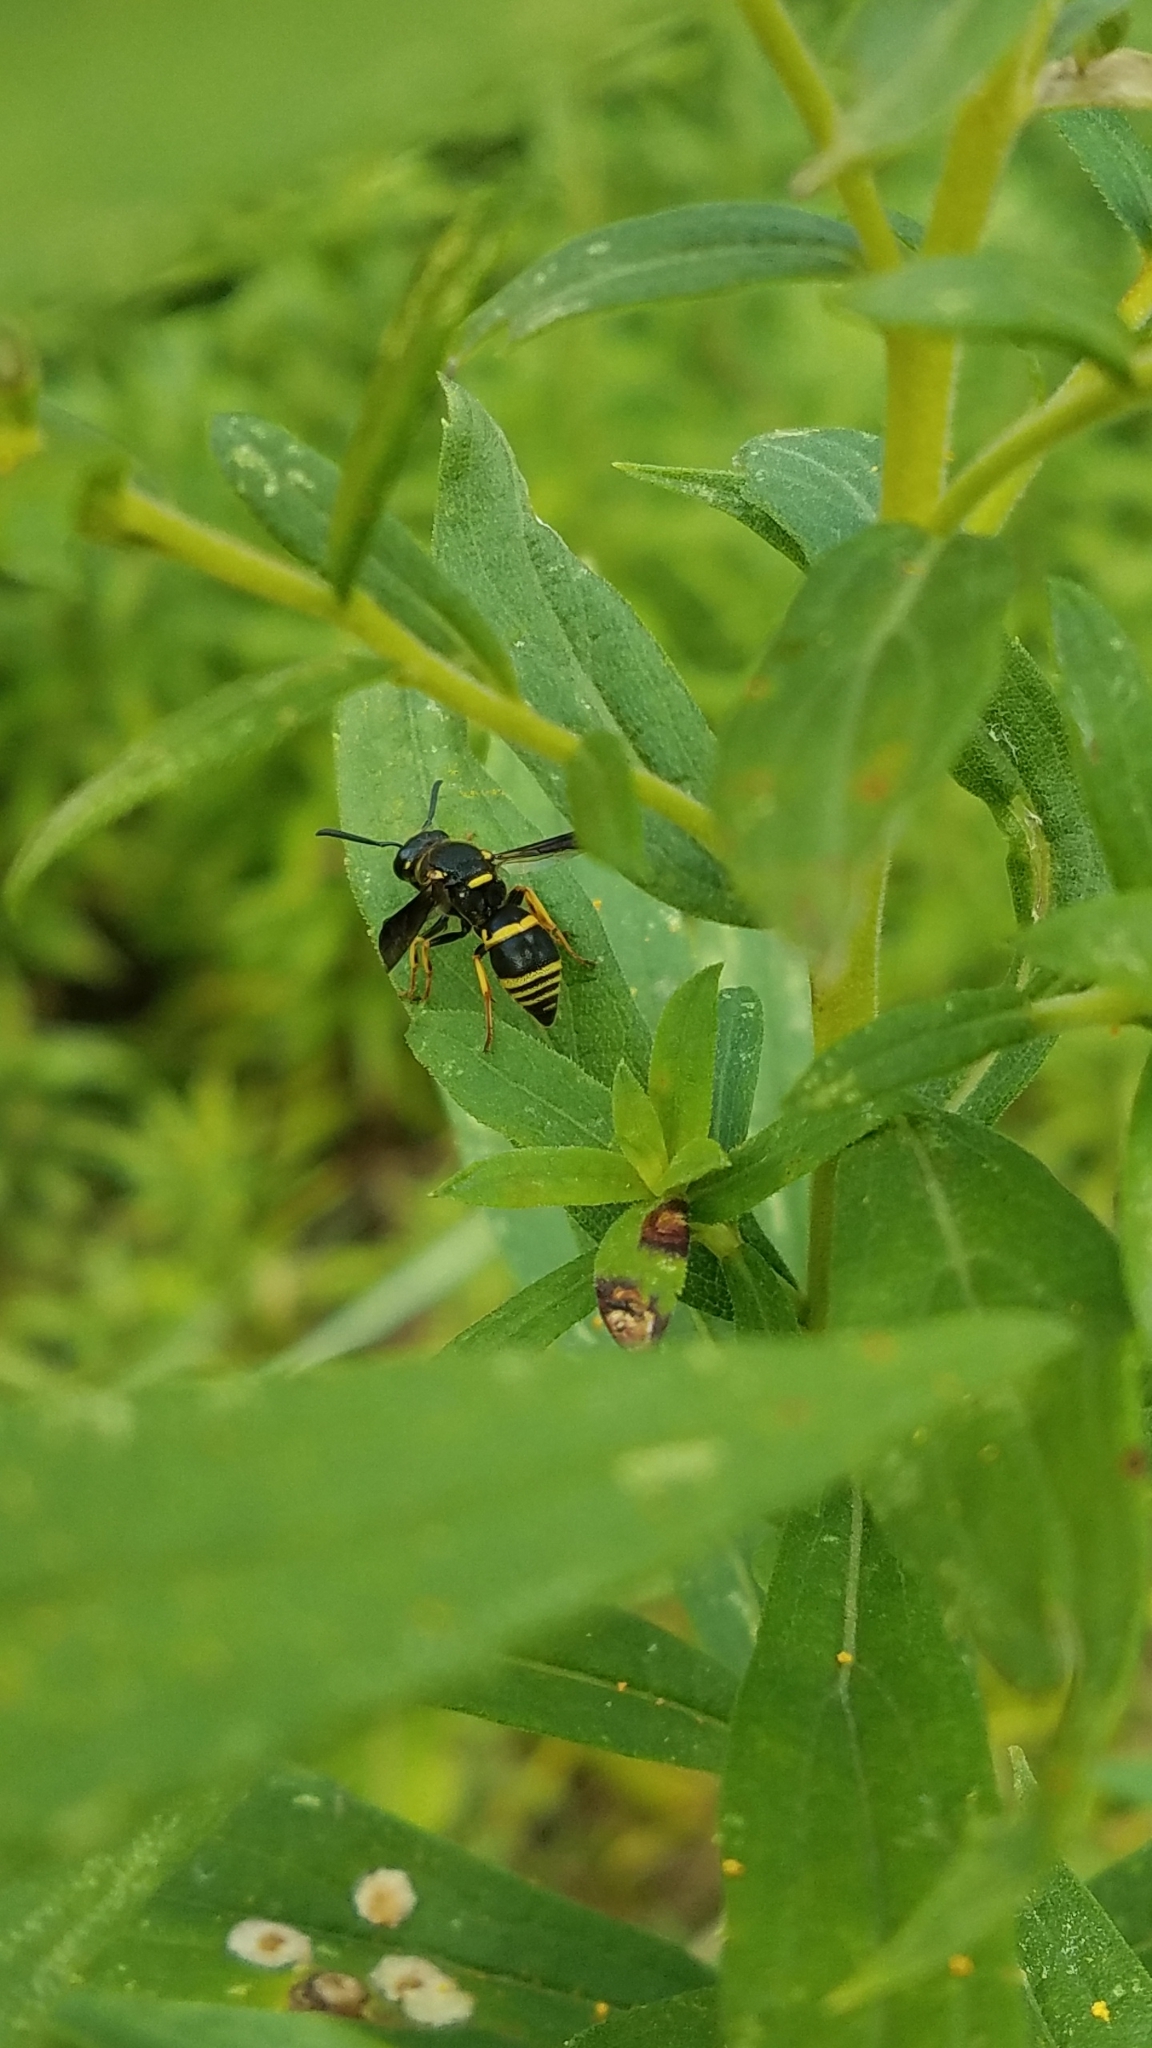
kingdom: Animalia
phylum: Arthropoda
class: Insecta
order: Hymenoptera
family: Eumenidae
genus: Euodynerus
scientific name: Euodynerus foraminatus
